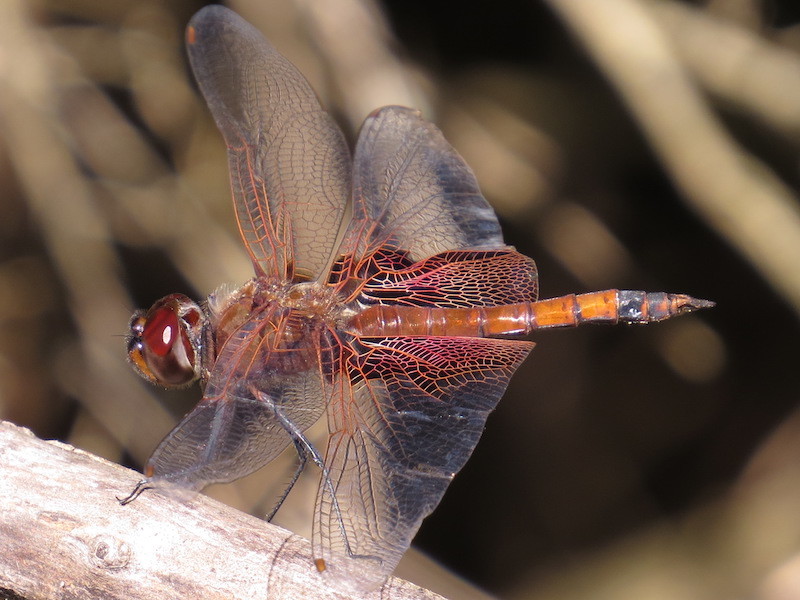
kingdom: Animalia
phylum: Arthropoda
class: Insecta
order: Odonata
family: Libellulidae
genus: Tramea
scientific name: Tramea carolina
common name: Carolina saddlebags
